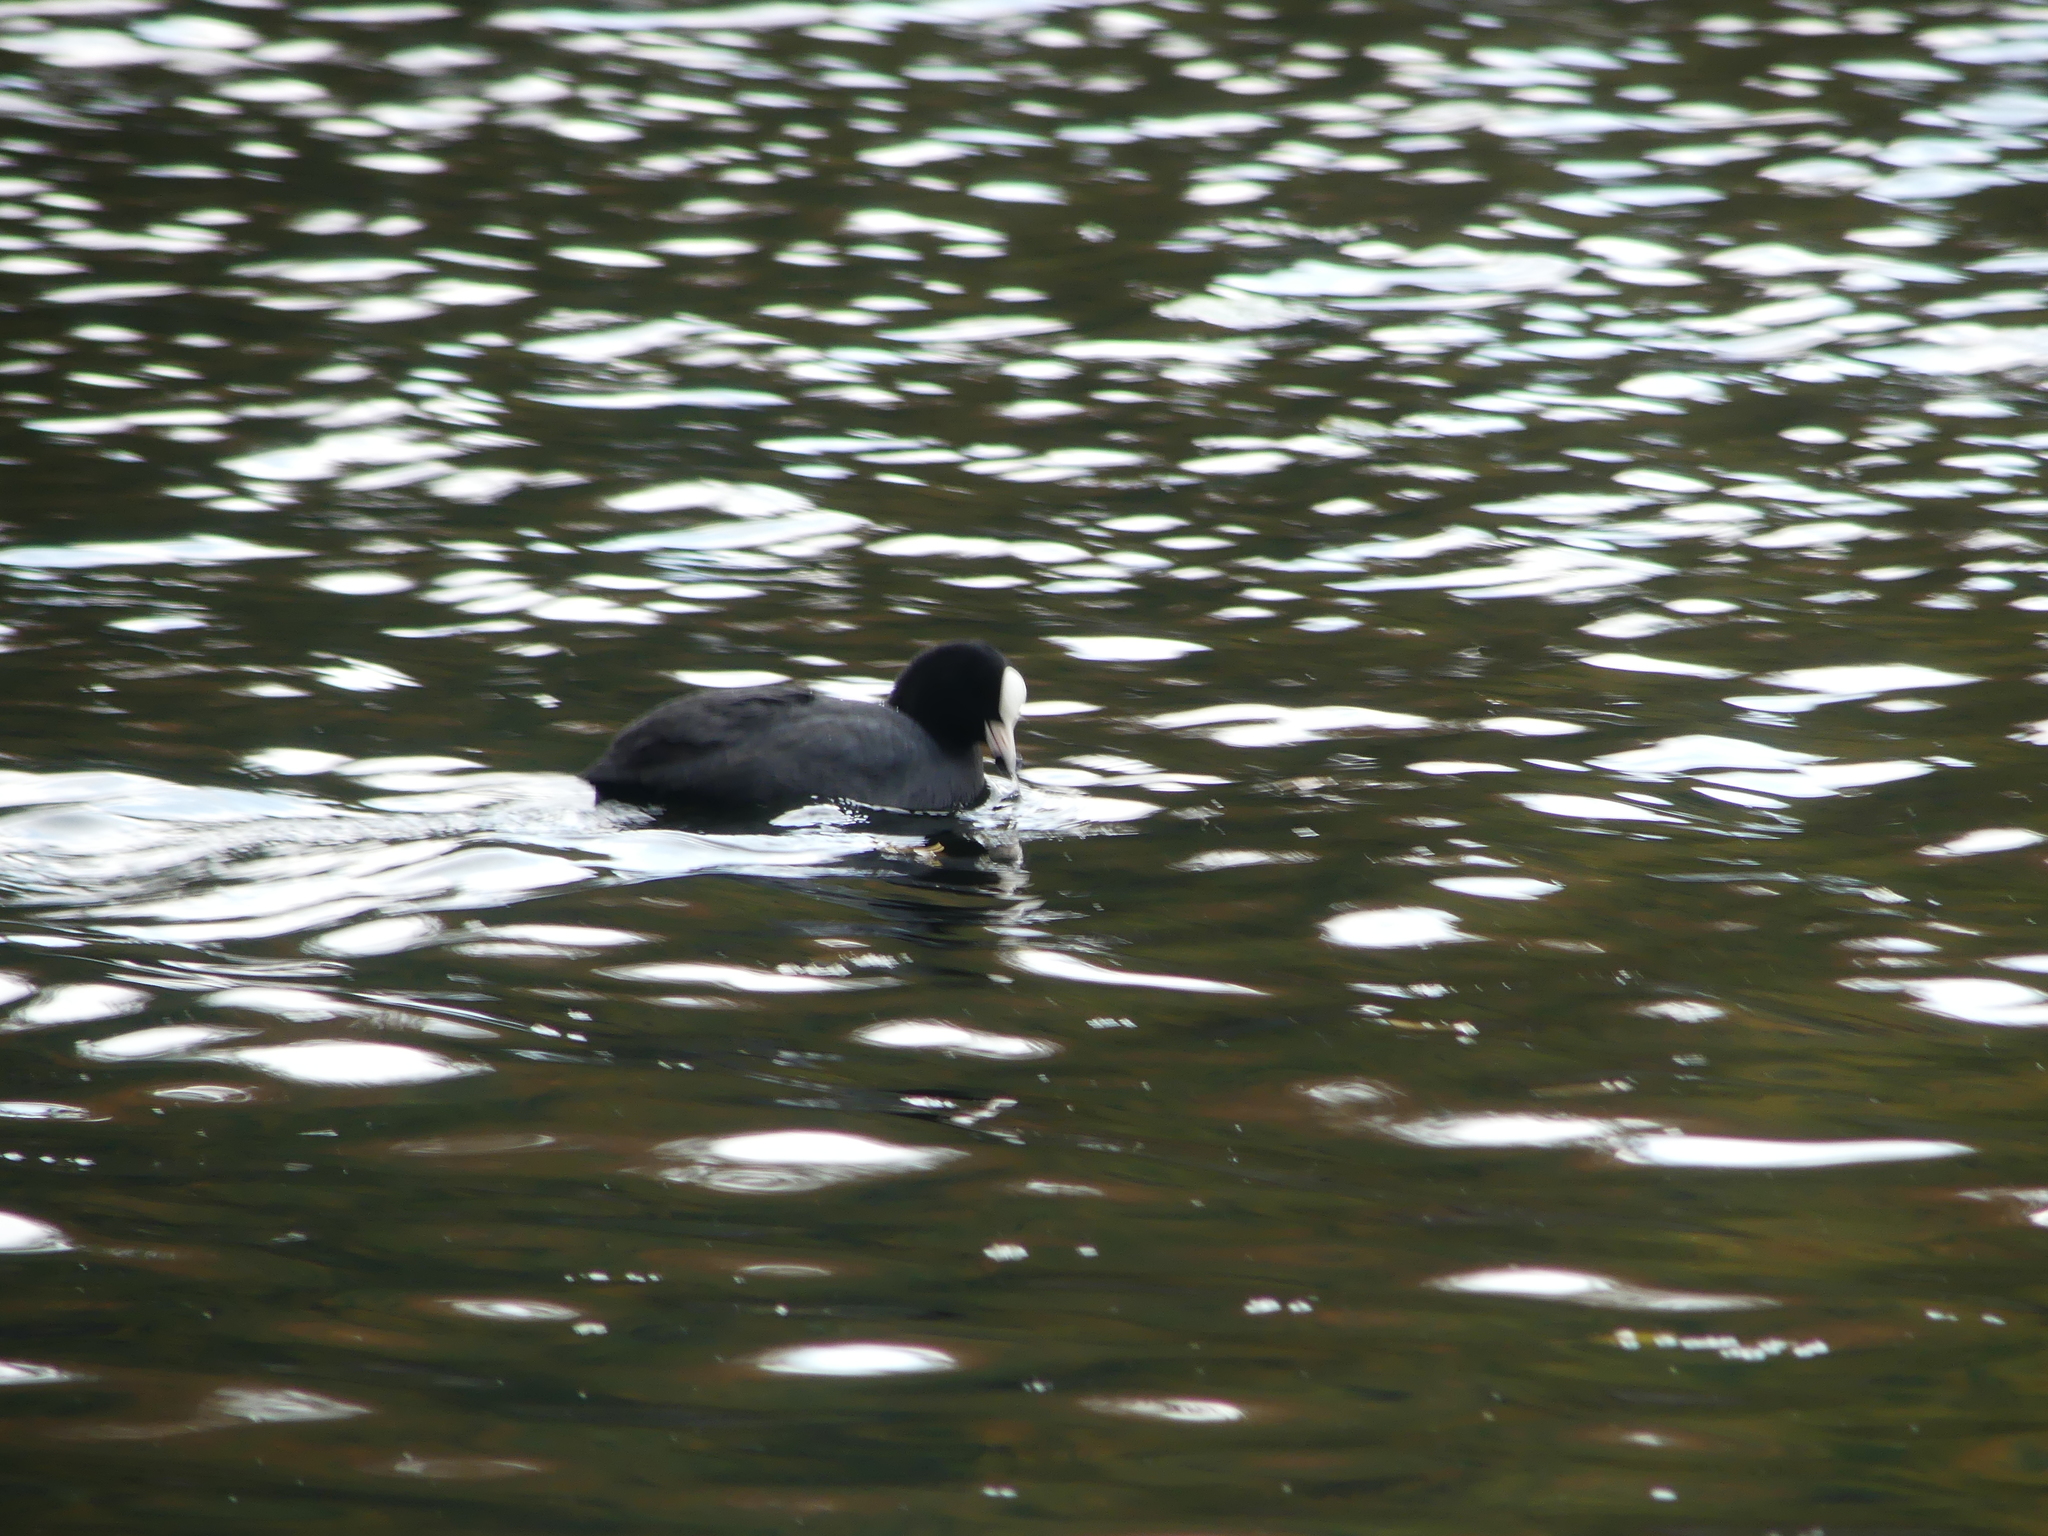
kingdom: Animalia
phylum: Chordata
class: Aves
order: Gruiformes
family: Rallidae
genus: Fulica
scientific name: Fulica atra
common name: Eurasian coot
